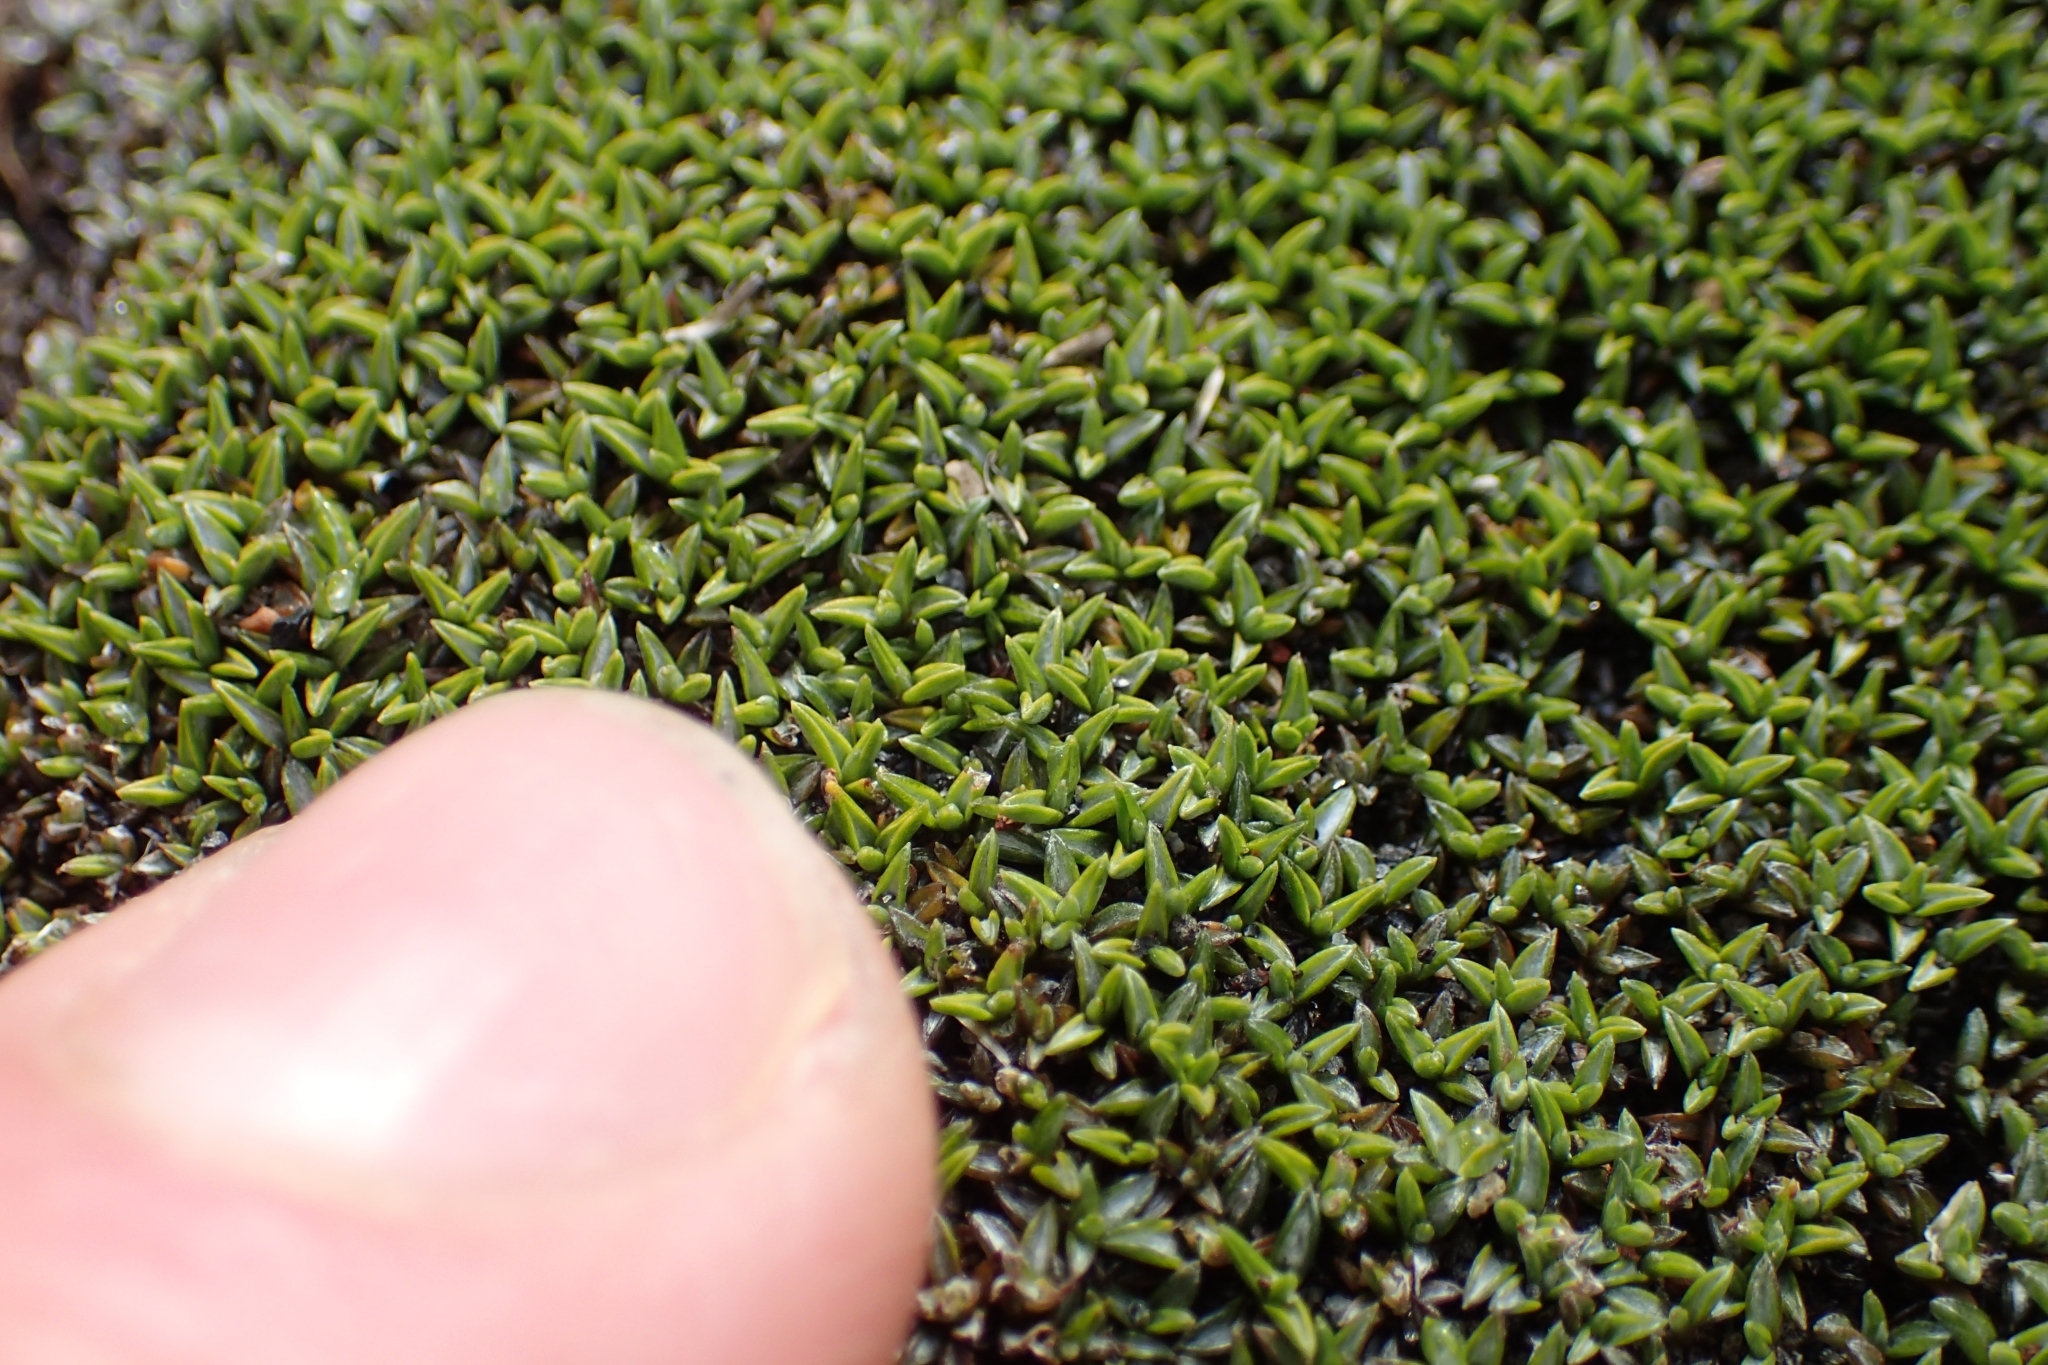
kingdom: Plantae
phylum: Tracheophyta
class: Magnoliopsida
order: Asterales
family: Asteraceae
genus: Raoulia
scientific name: Raoulia tenuicaulis
